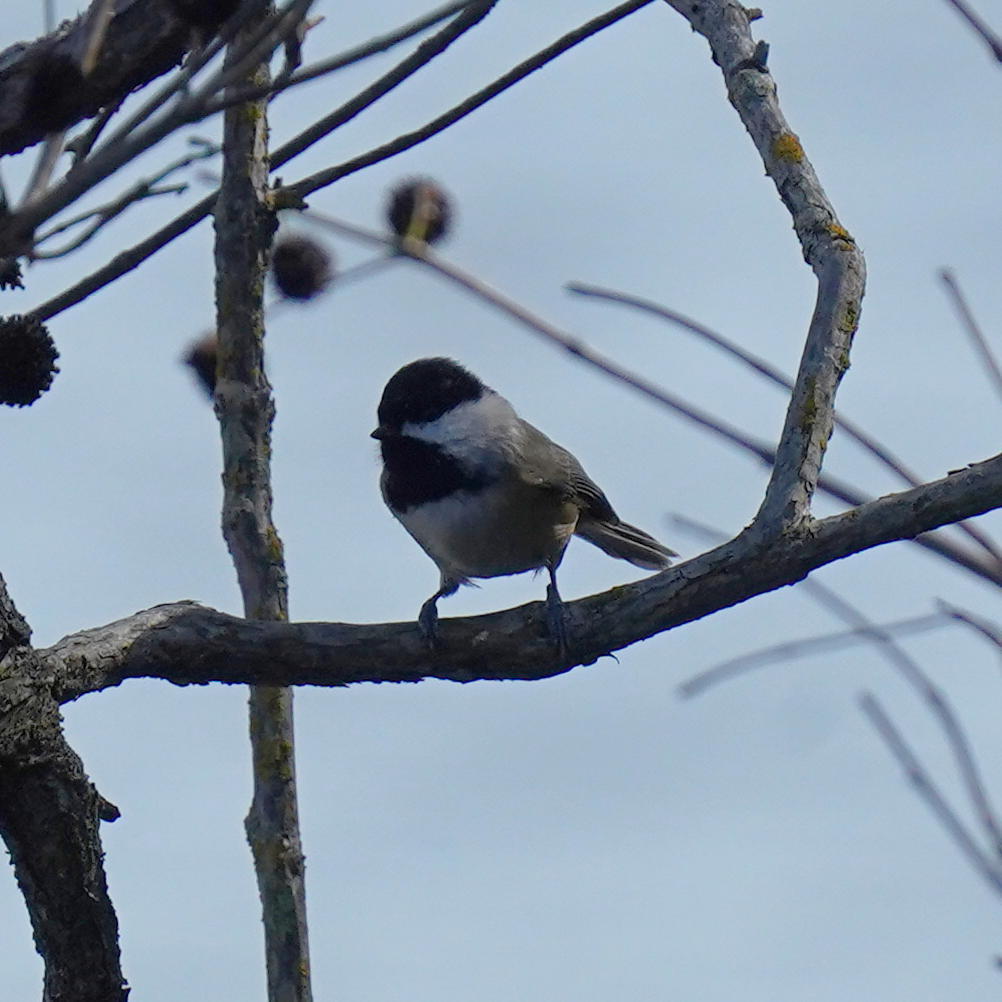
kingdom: Animalia
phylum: Chordata
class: Aves
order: Passeriformes
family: Paridae
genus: Poecile
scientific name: Poecile carolinensis
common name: Carolina chickadee
